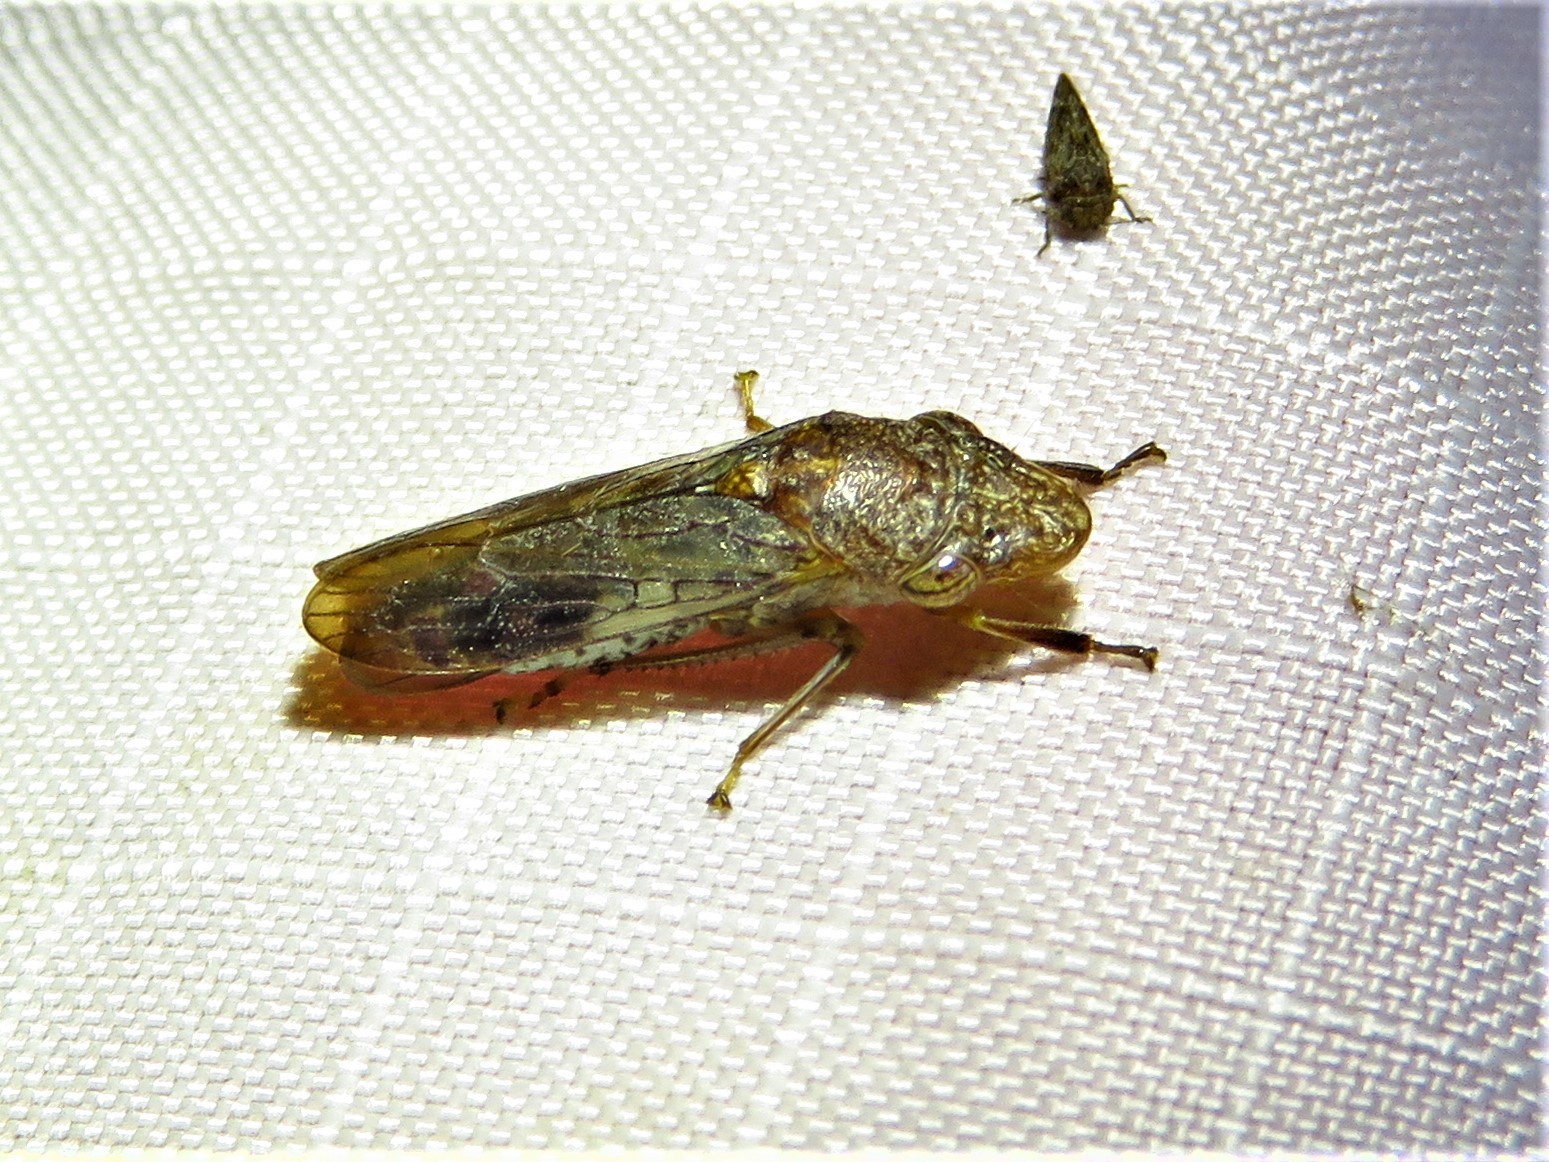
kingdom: Animalia
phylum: Arthropoda
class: Insecta
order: Hemiptera
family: Cicadellidae
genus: Homalodisca
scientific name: Homalodisca vitripennis
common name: Glassy-winged sharpshooter
